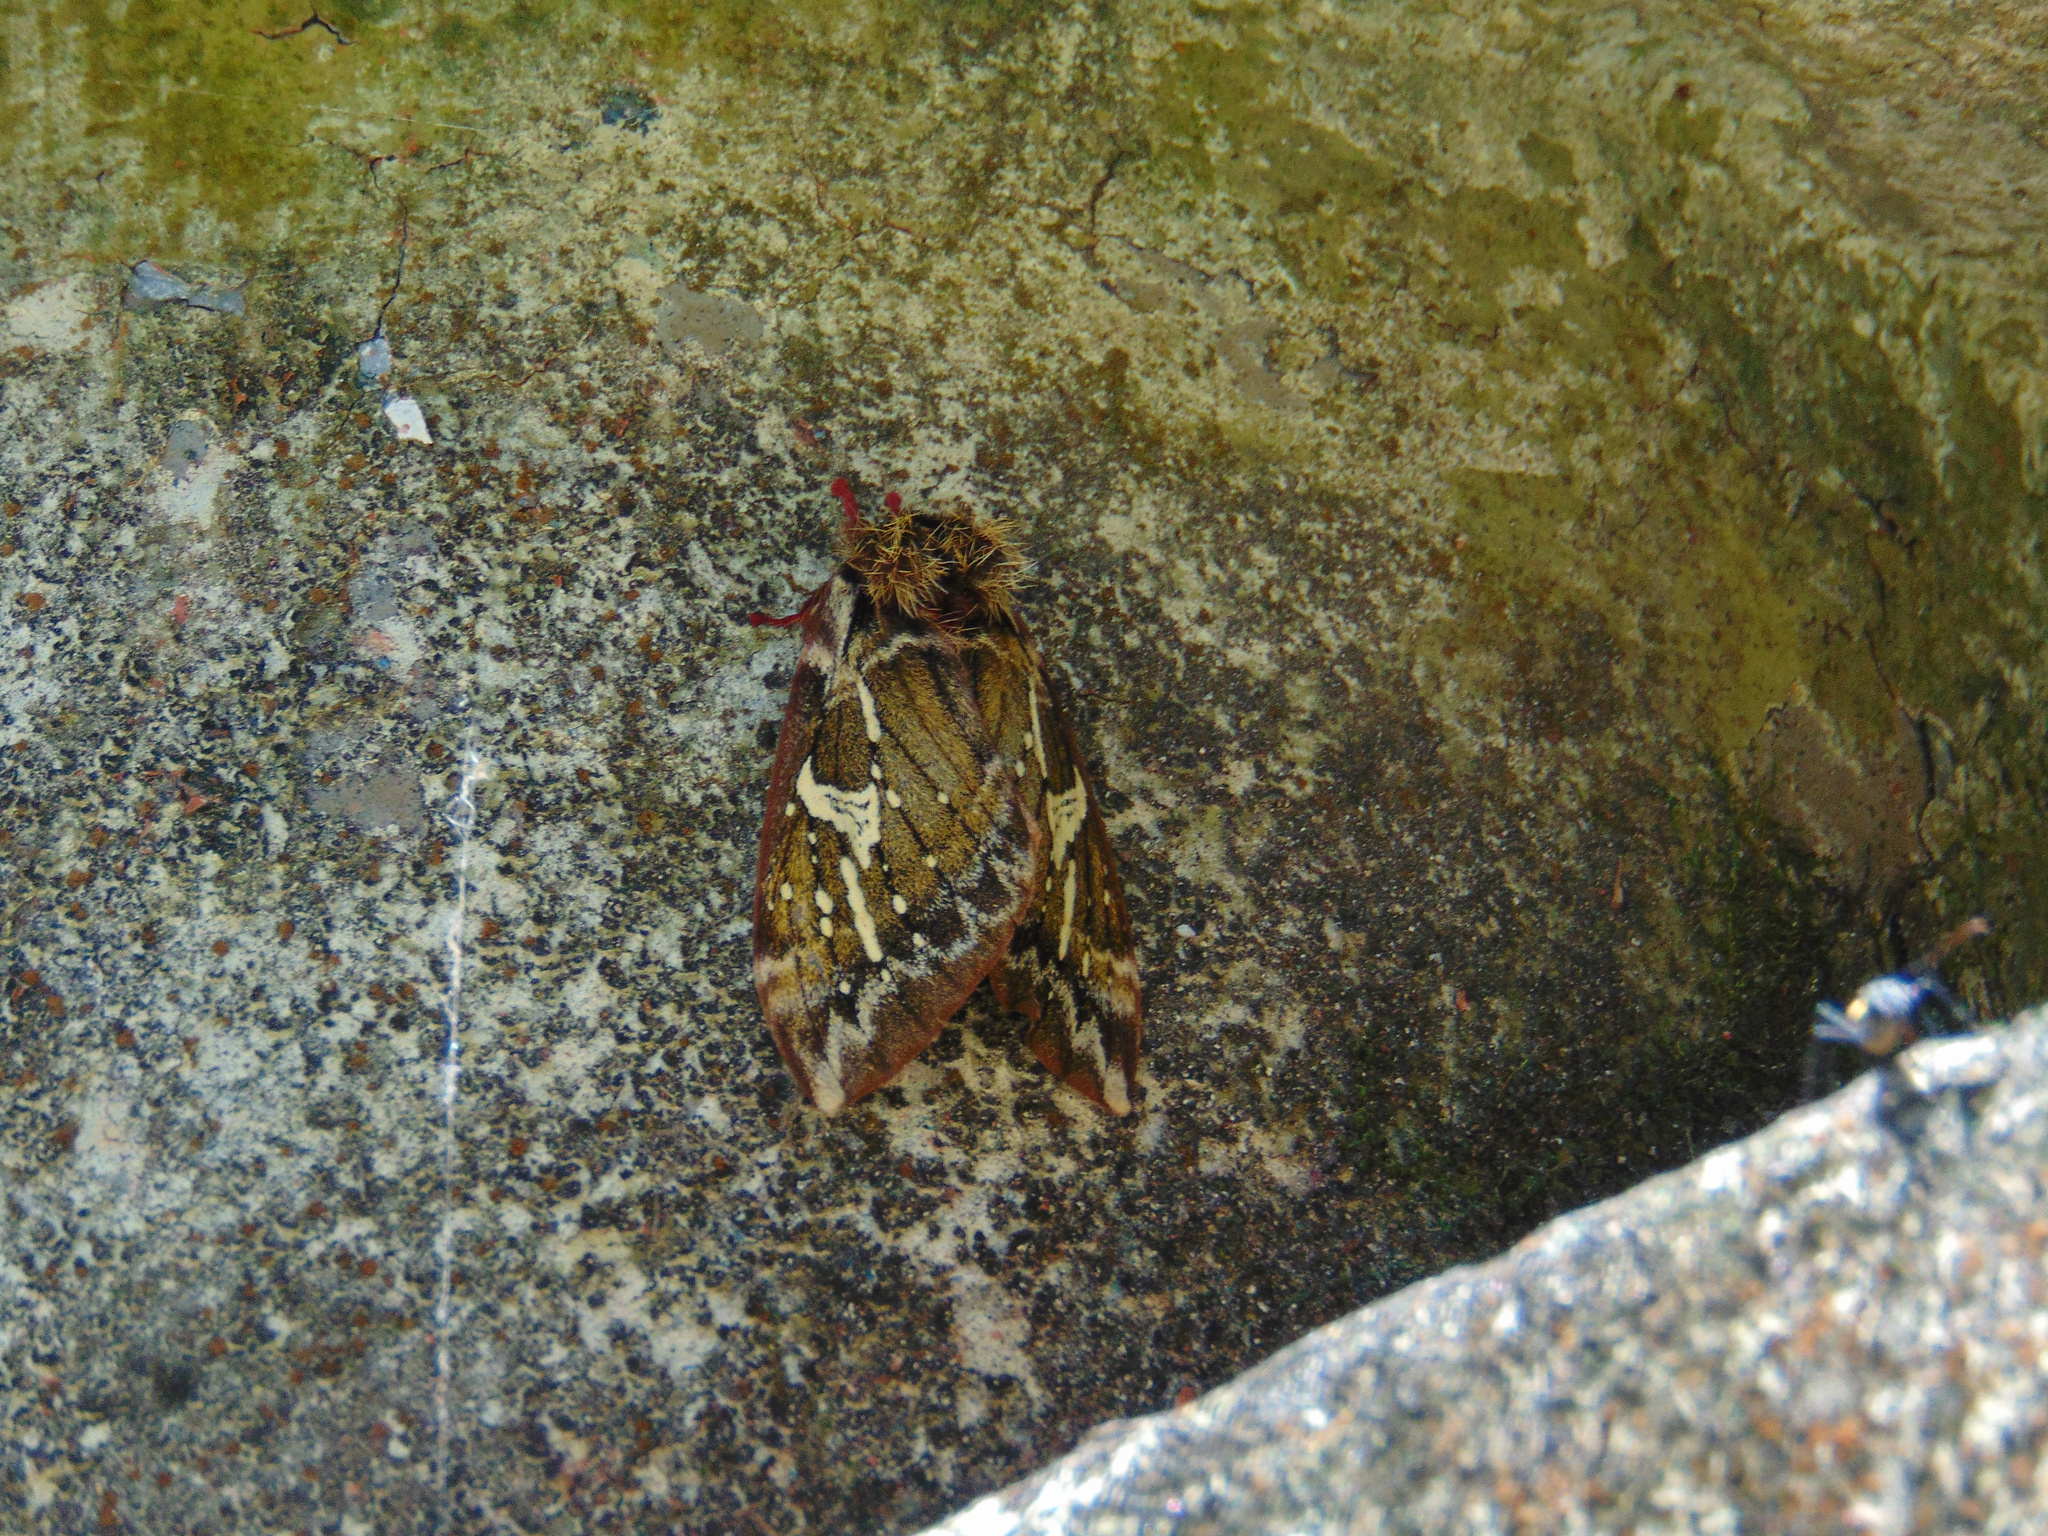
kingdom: Animalia
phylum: Arthropoda
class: Insecta
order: Lepidoptera
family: Saturniidae
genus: Dirphiopsis
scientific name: Dirphiopsis epiolina
